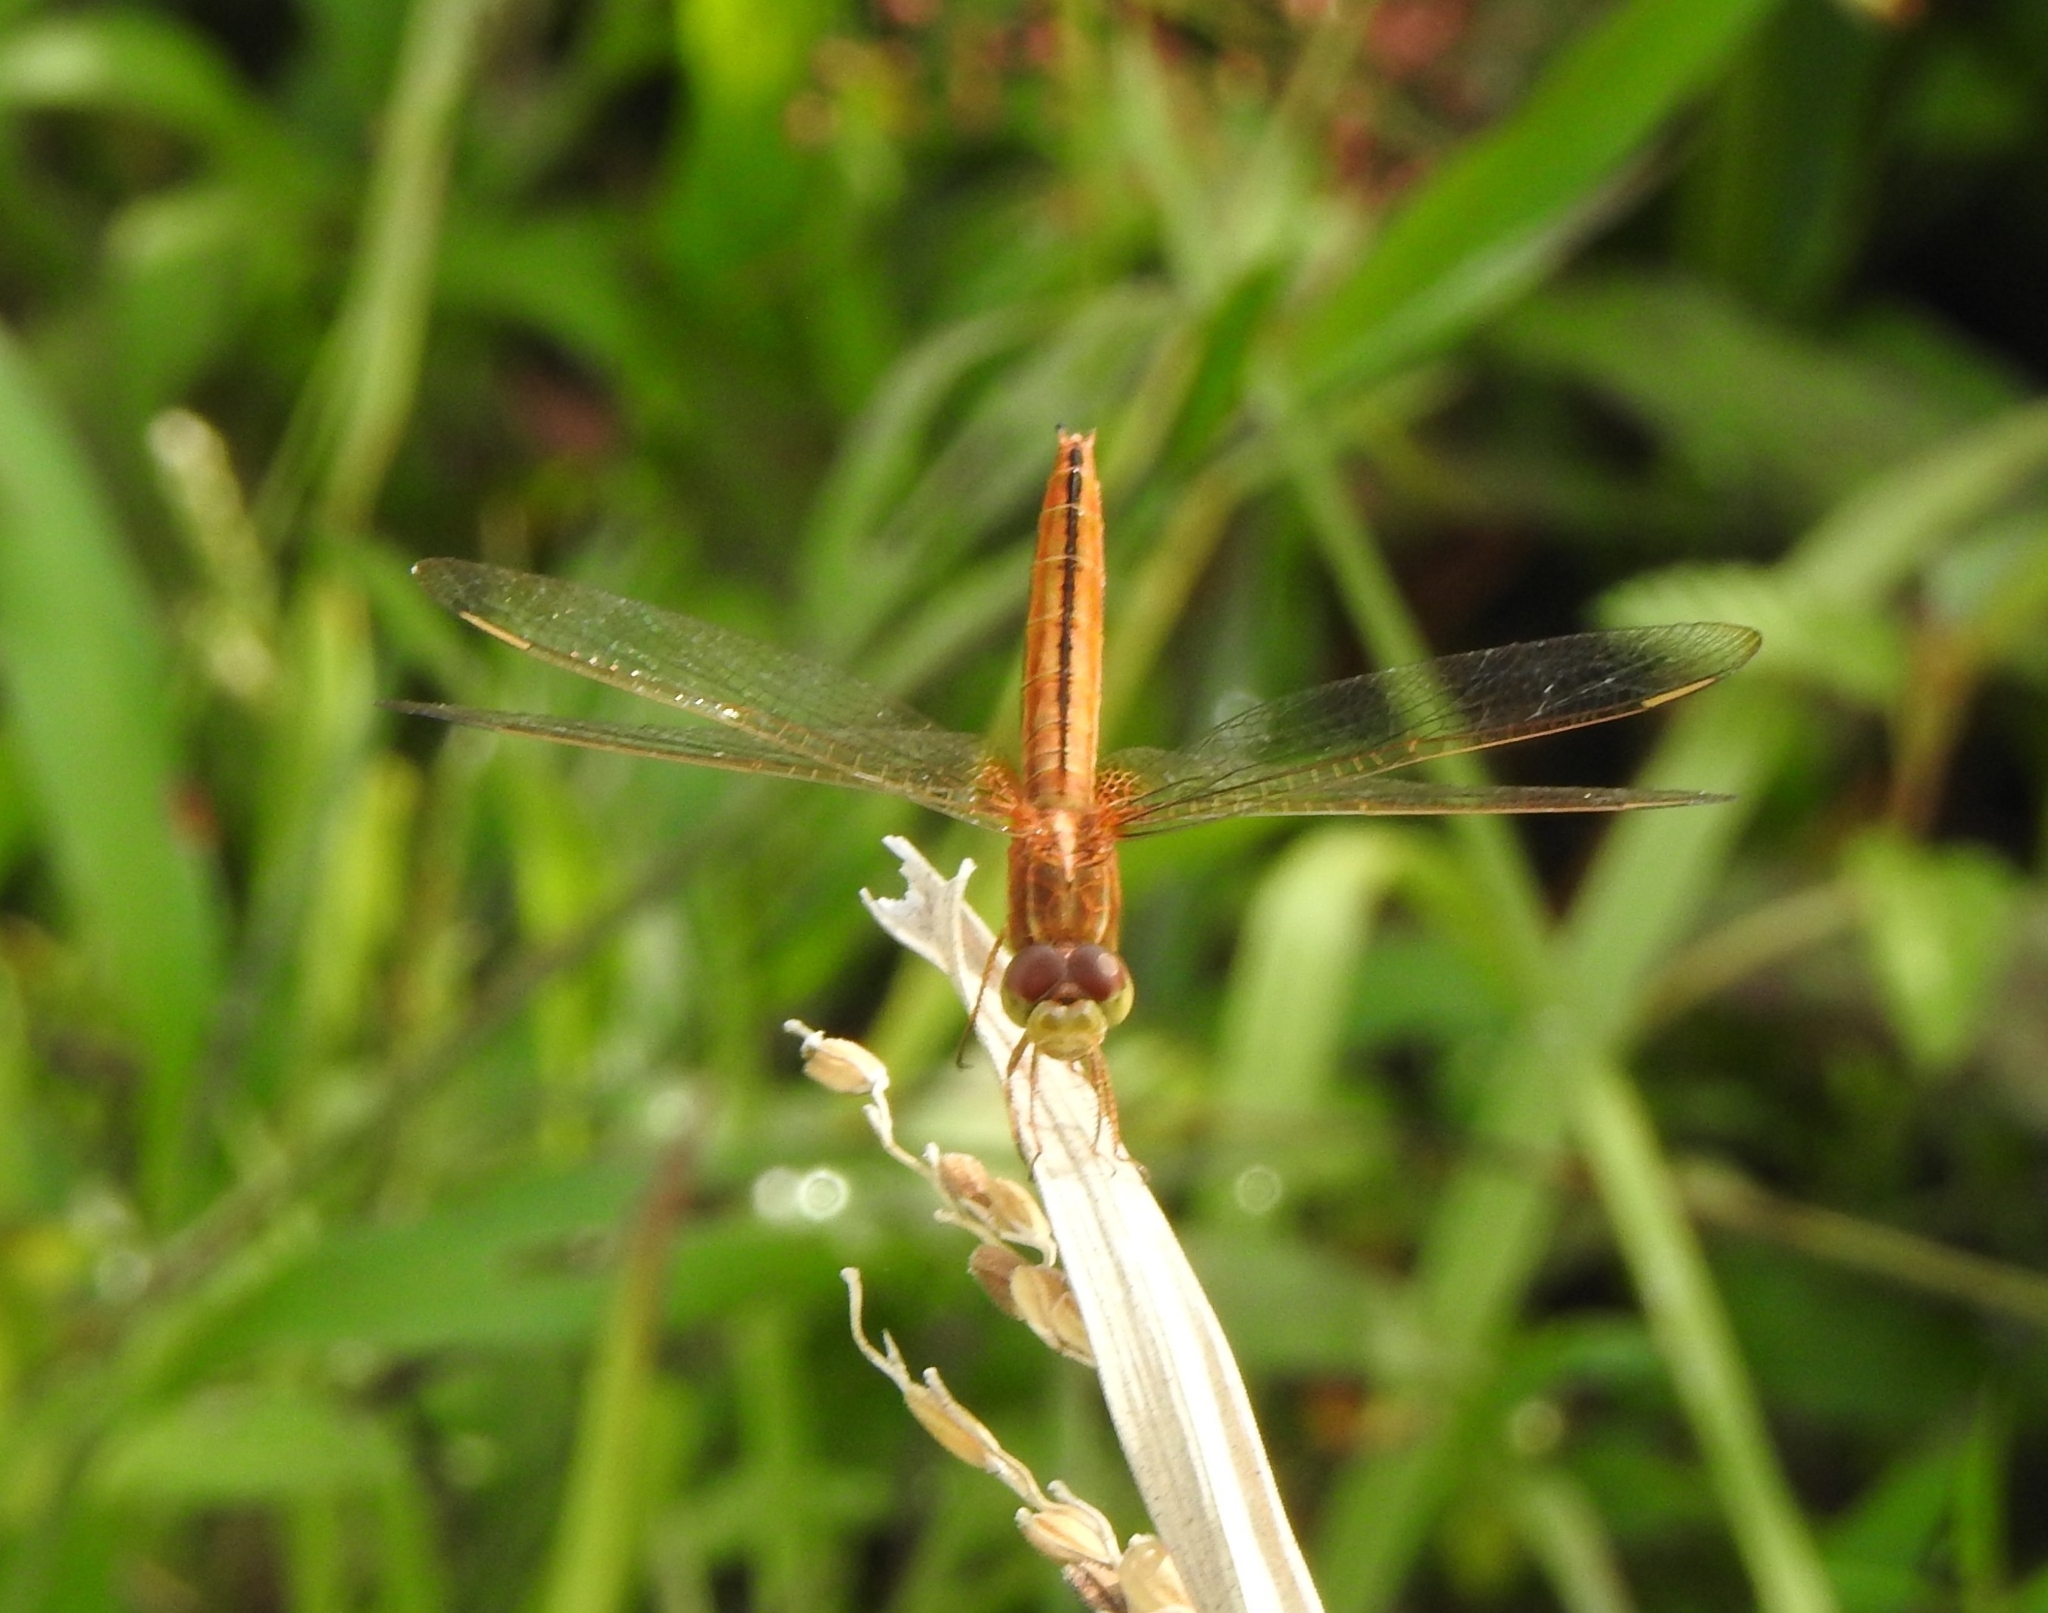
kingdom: Animalia
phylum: Arthropoda
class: Insecta
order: Odonata
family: Libellulidae
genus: Crocothemis
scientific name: Crocothemis servilia
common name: Scarlet skimmer
